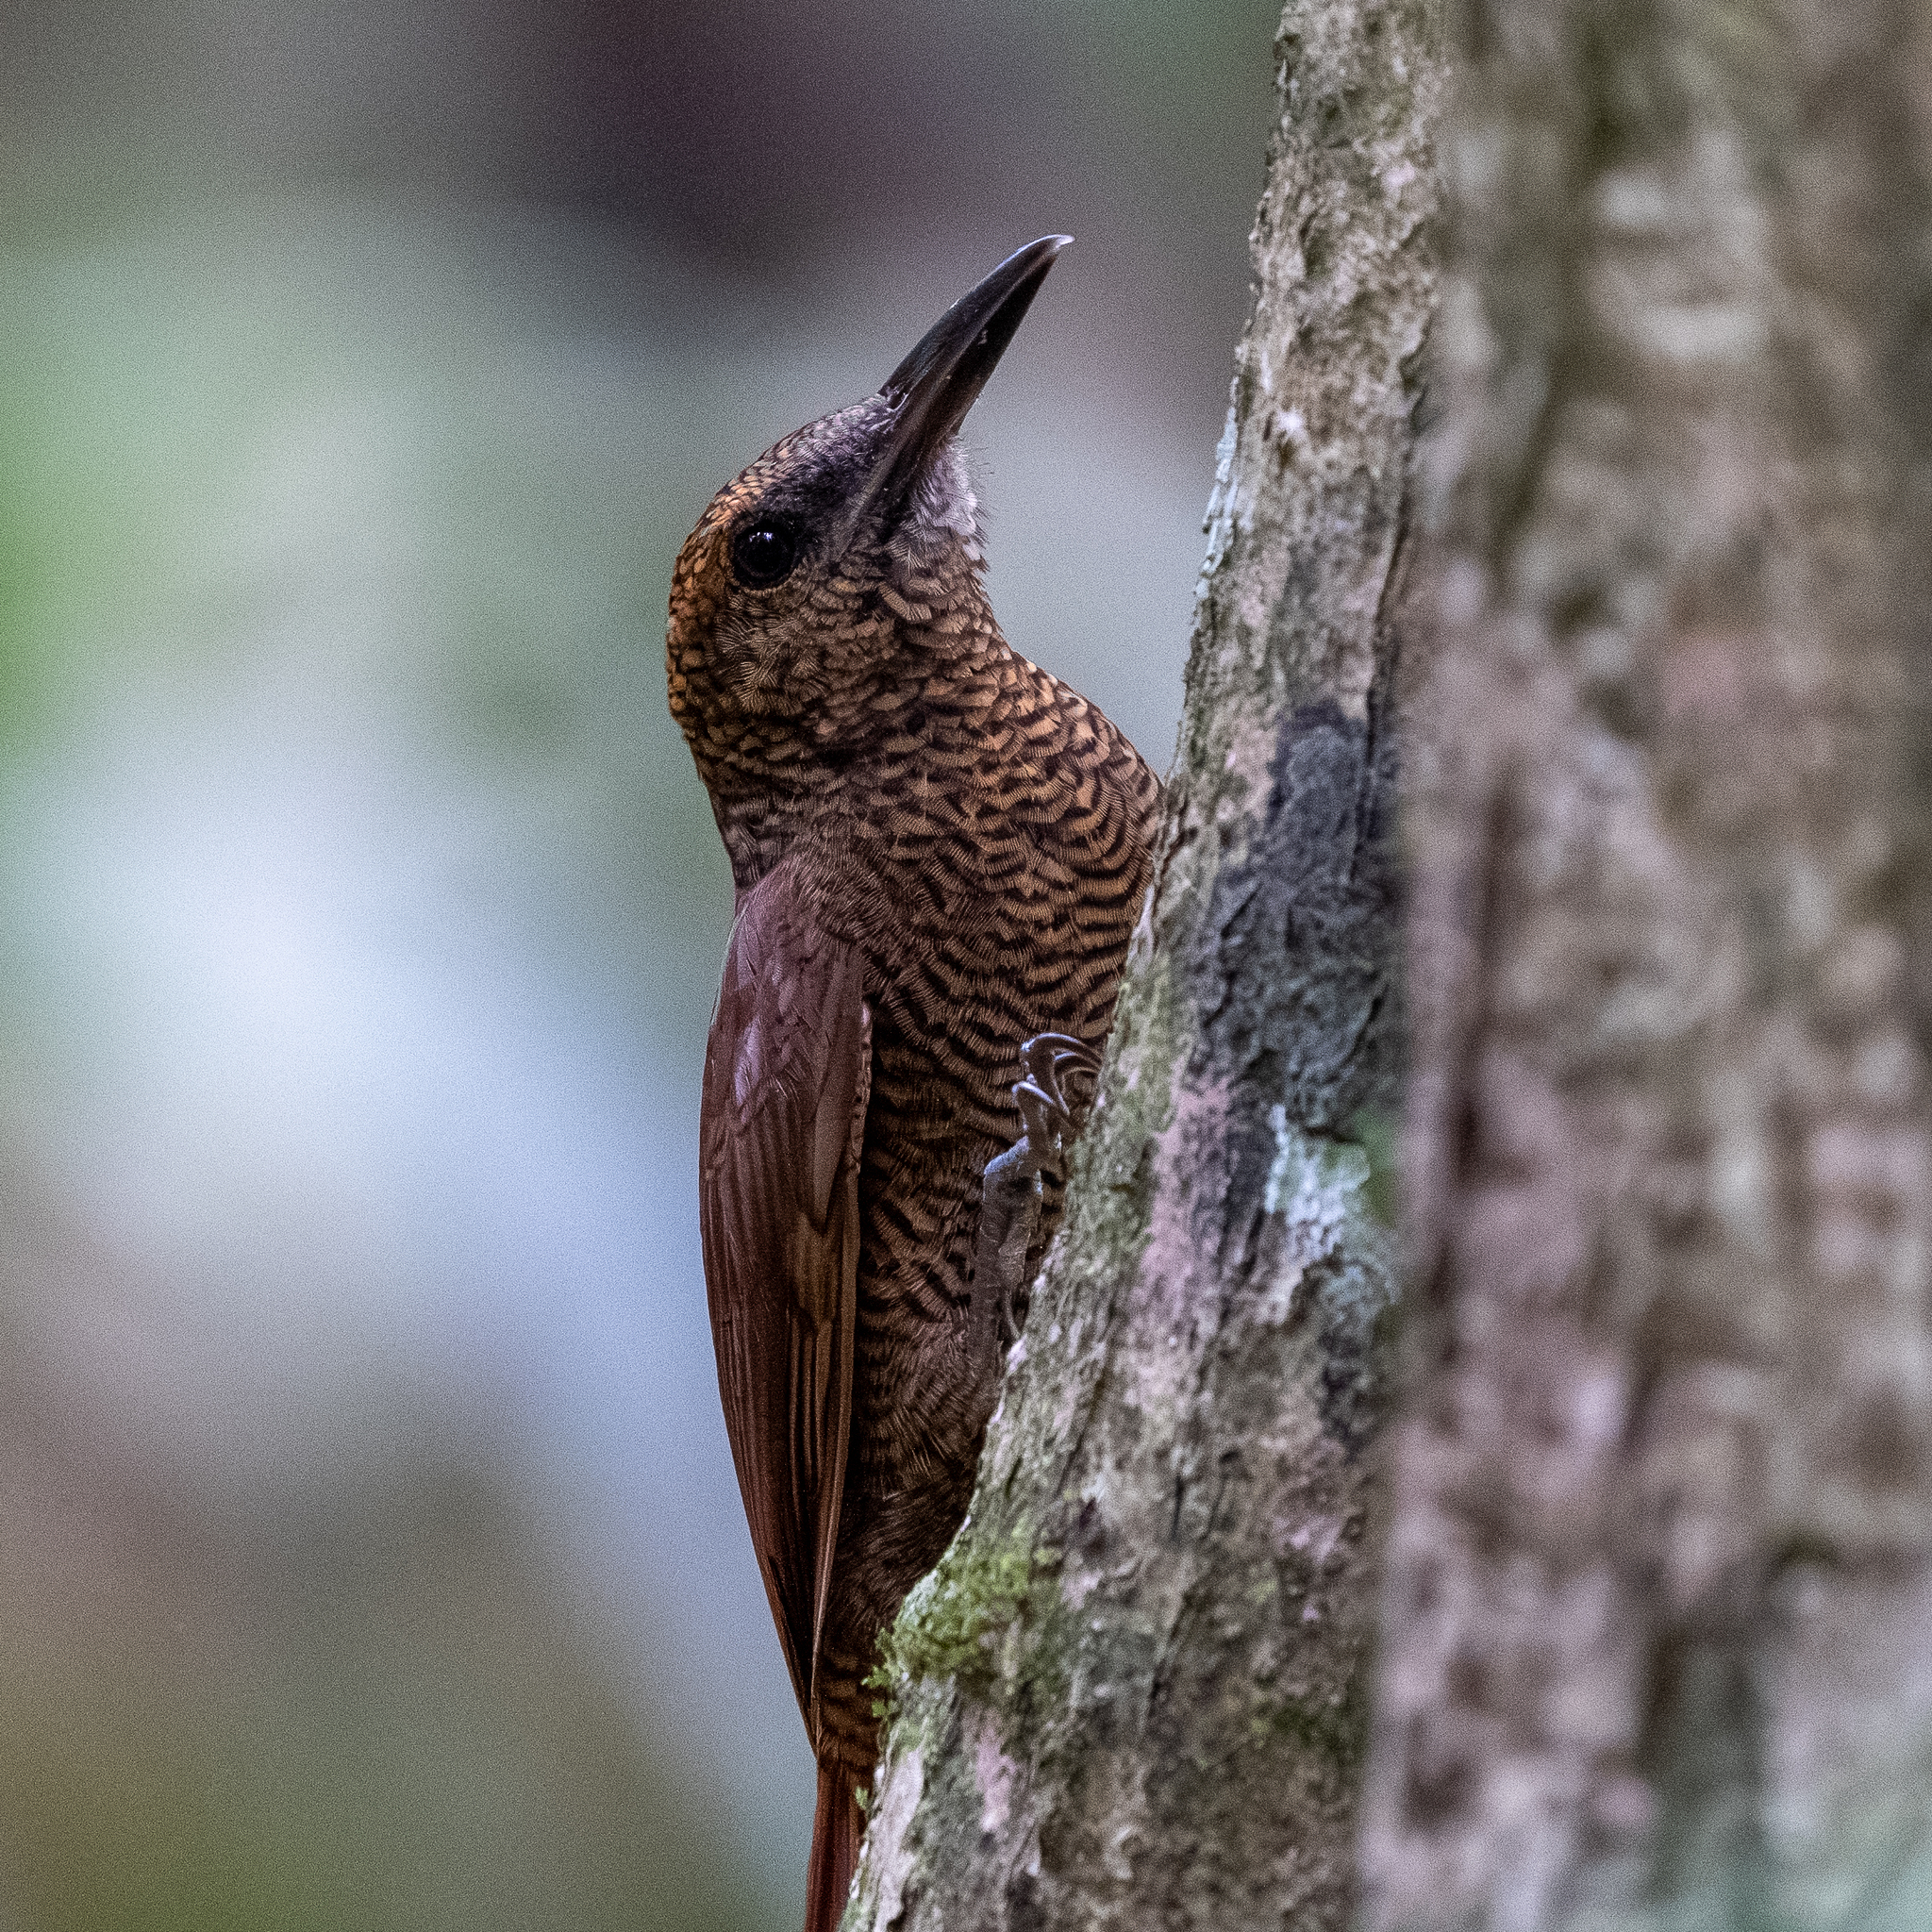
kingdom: Animalia
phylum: Chordata
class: Aves
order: Passeriformes
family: Furnariidae
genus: Dendrocolaptes
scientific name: Dendrocolaptes sanctithomae
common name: Northern barred-woodcreeper
